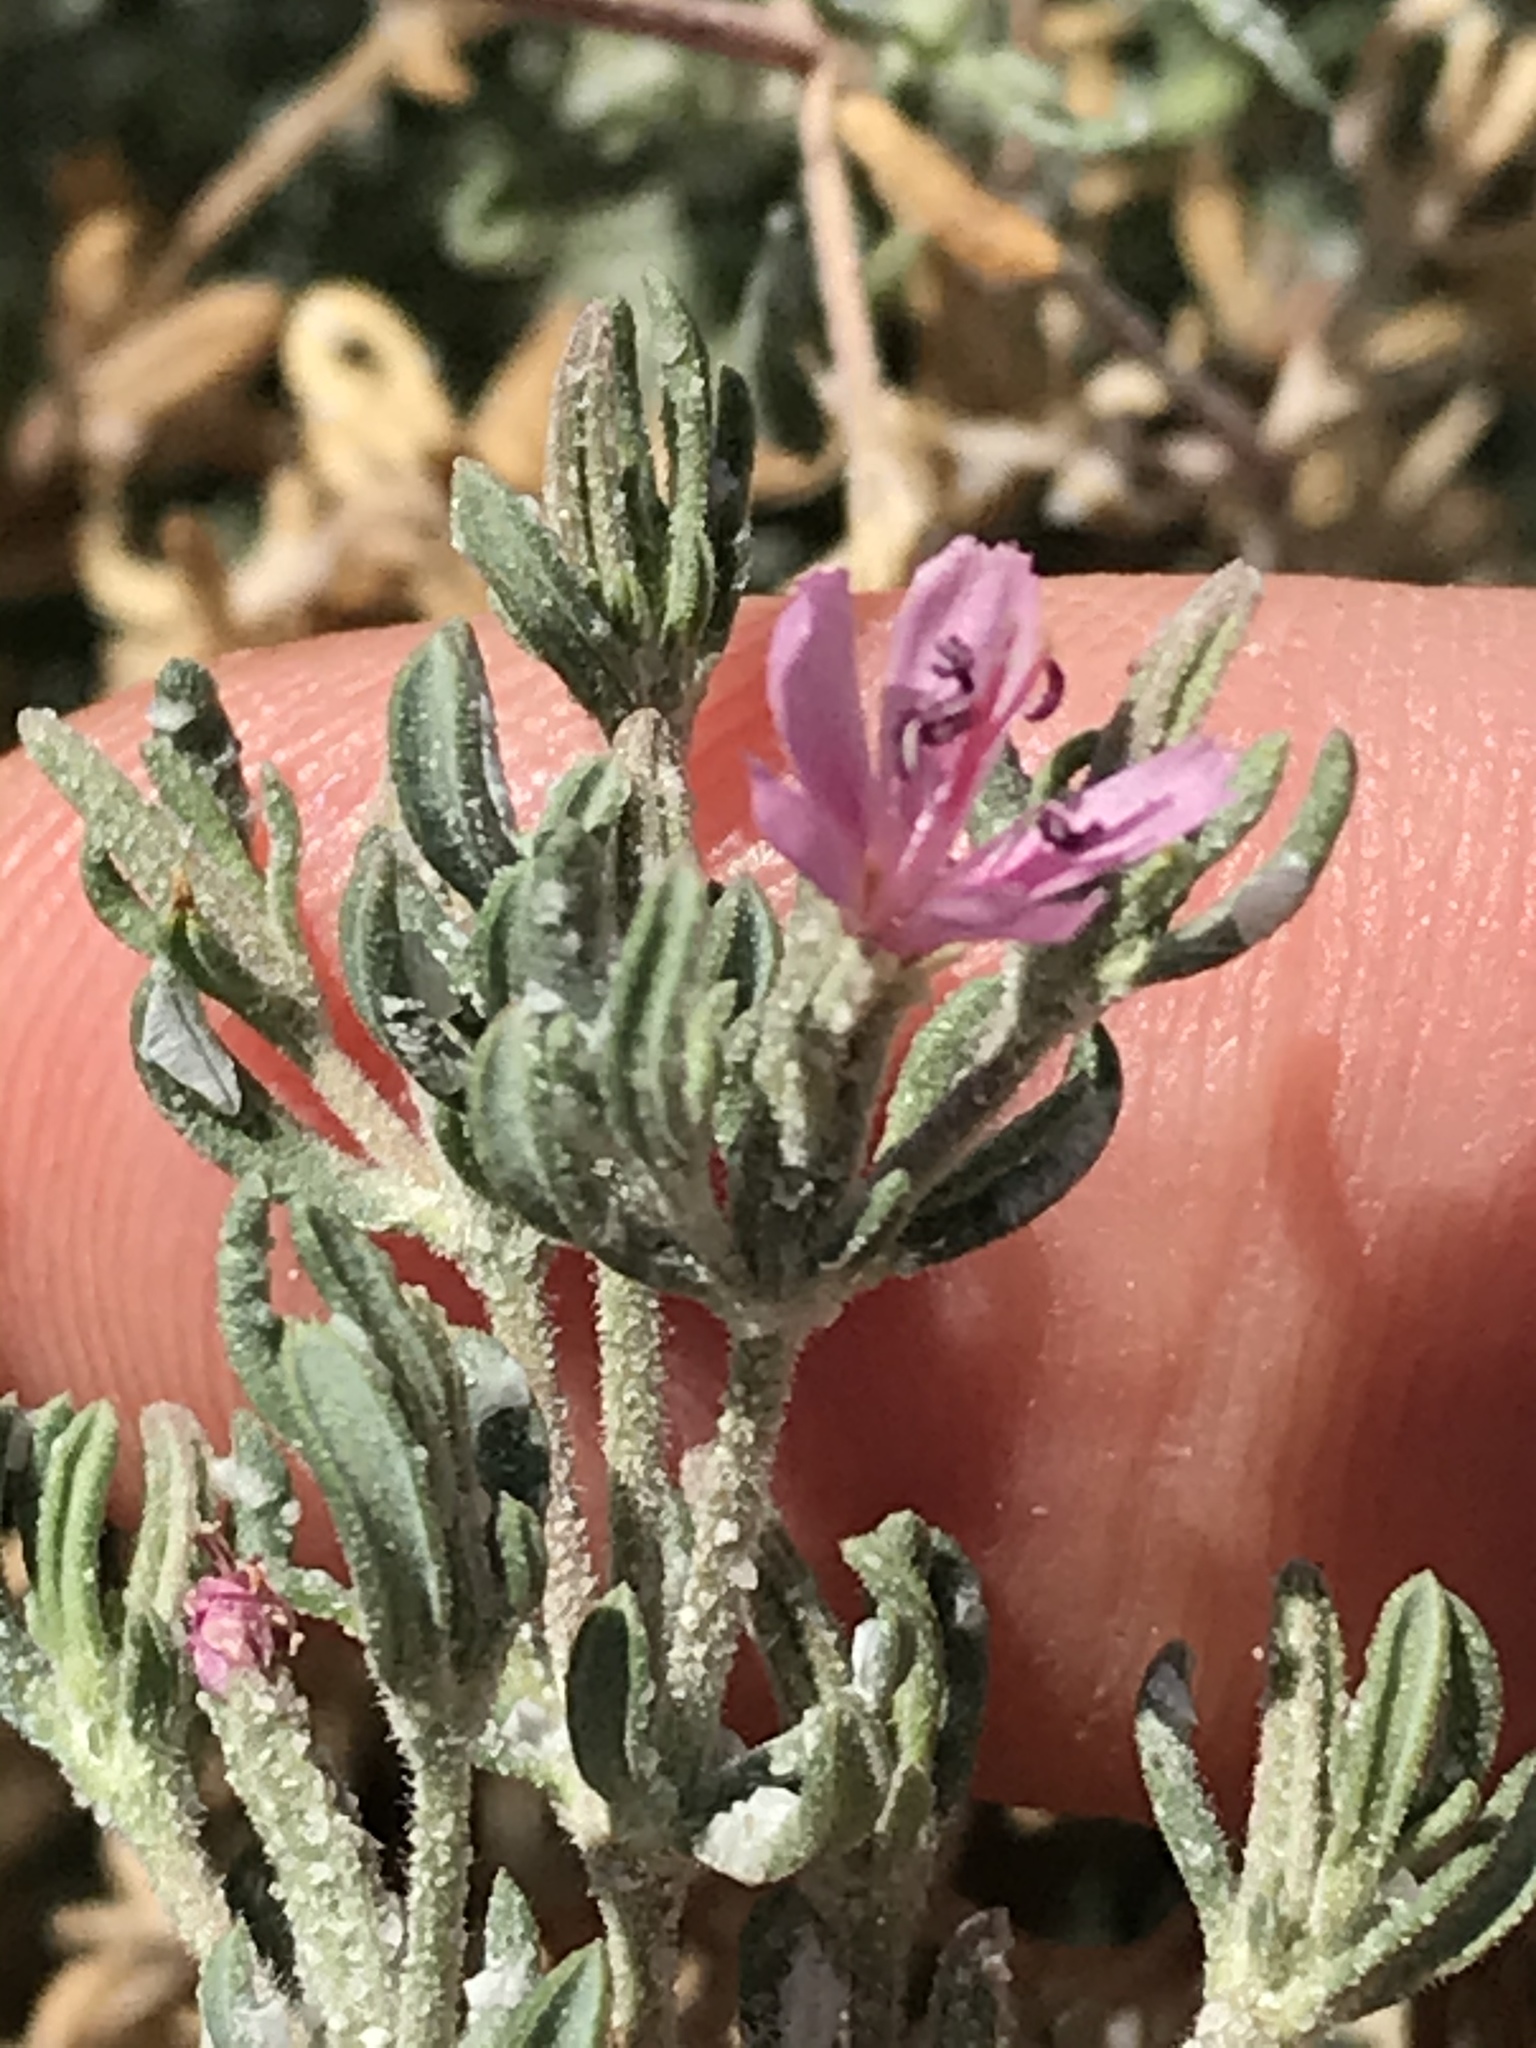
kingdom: Plantae
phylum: Tracheophyta
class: Magnoliopsida
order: Caryophyllales
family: Frankeniaceae
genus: Frankenia
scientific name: Frankenia salina
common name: Alkali seaheath
